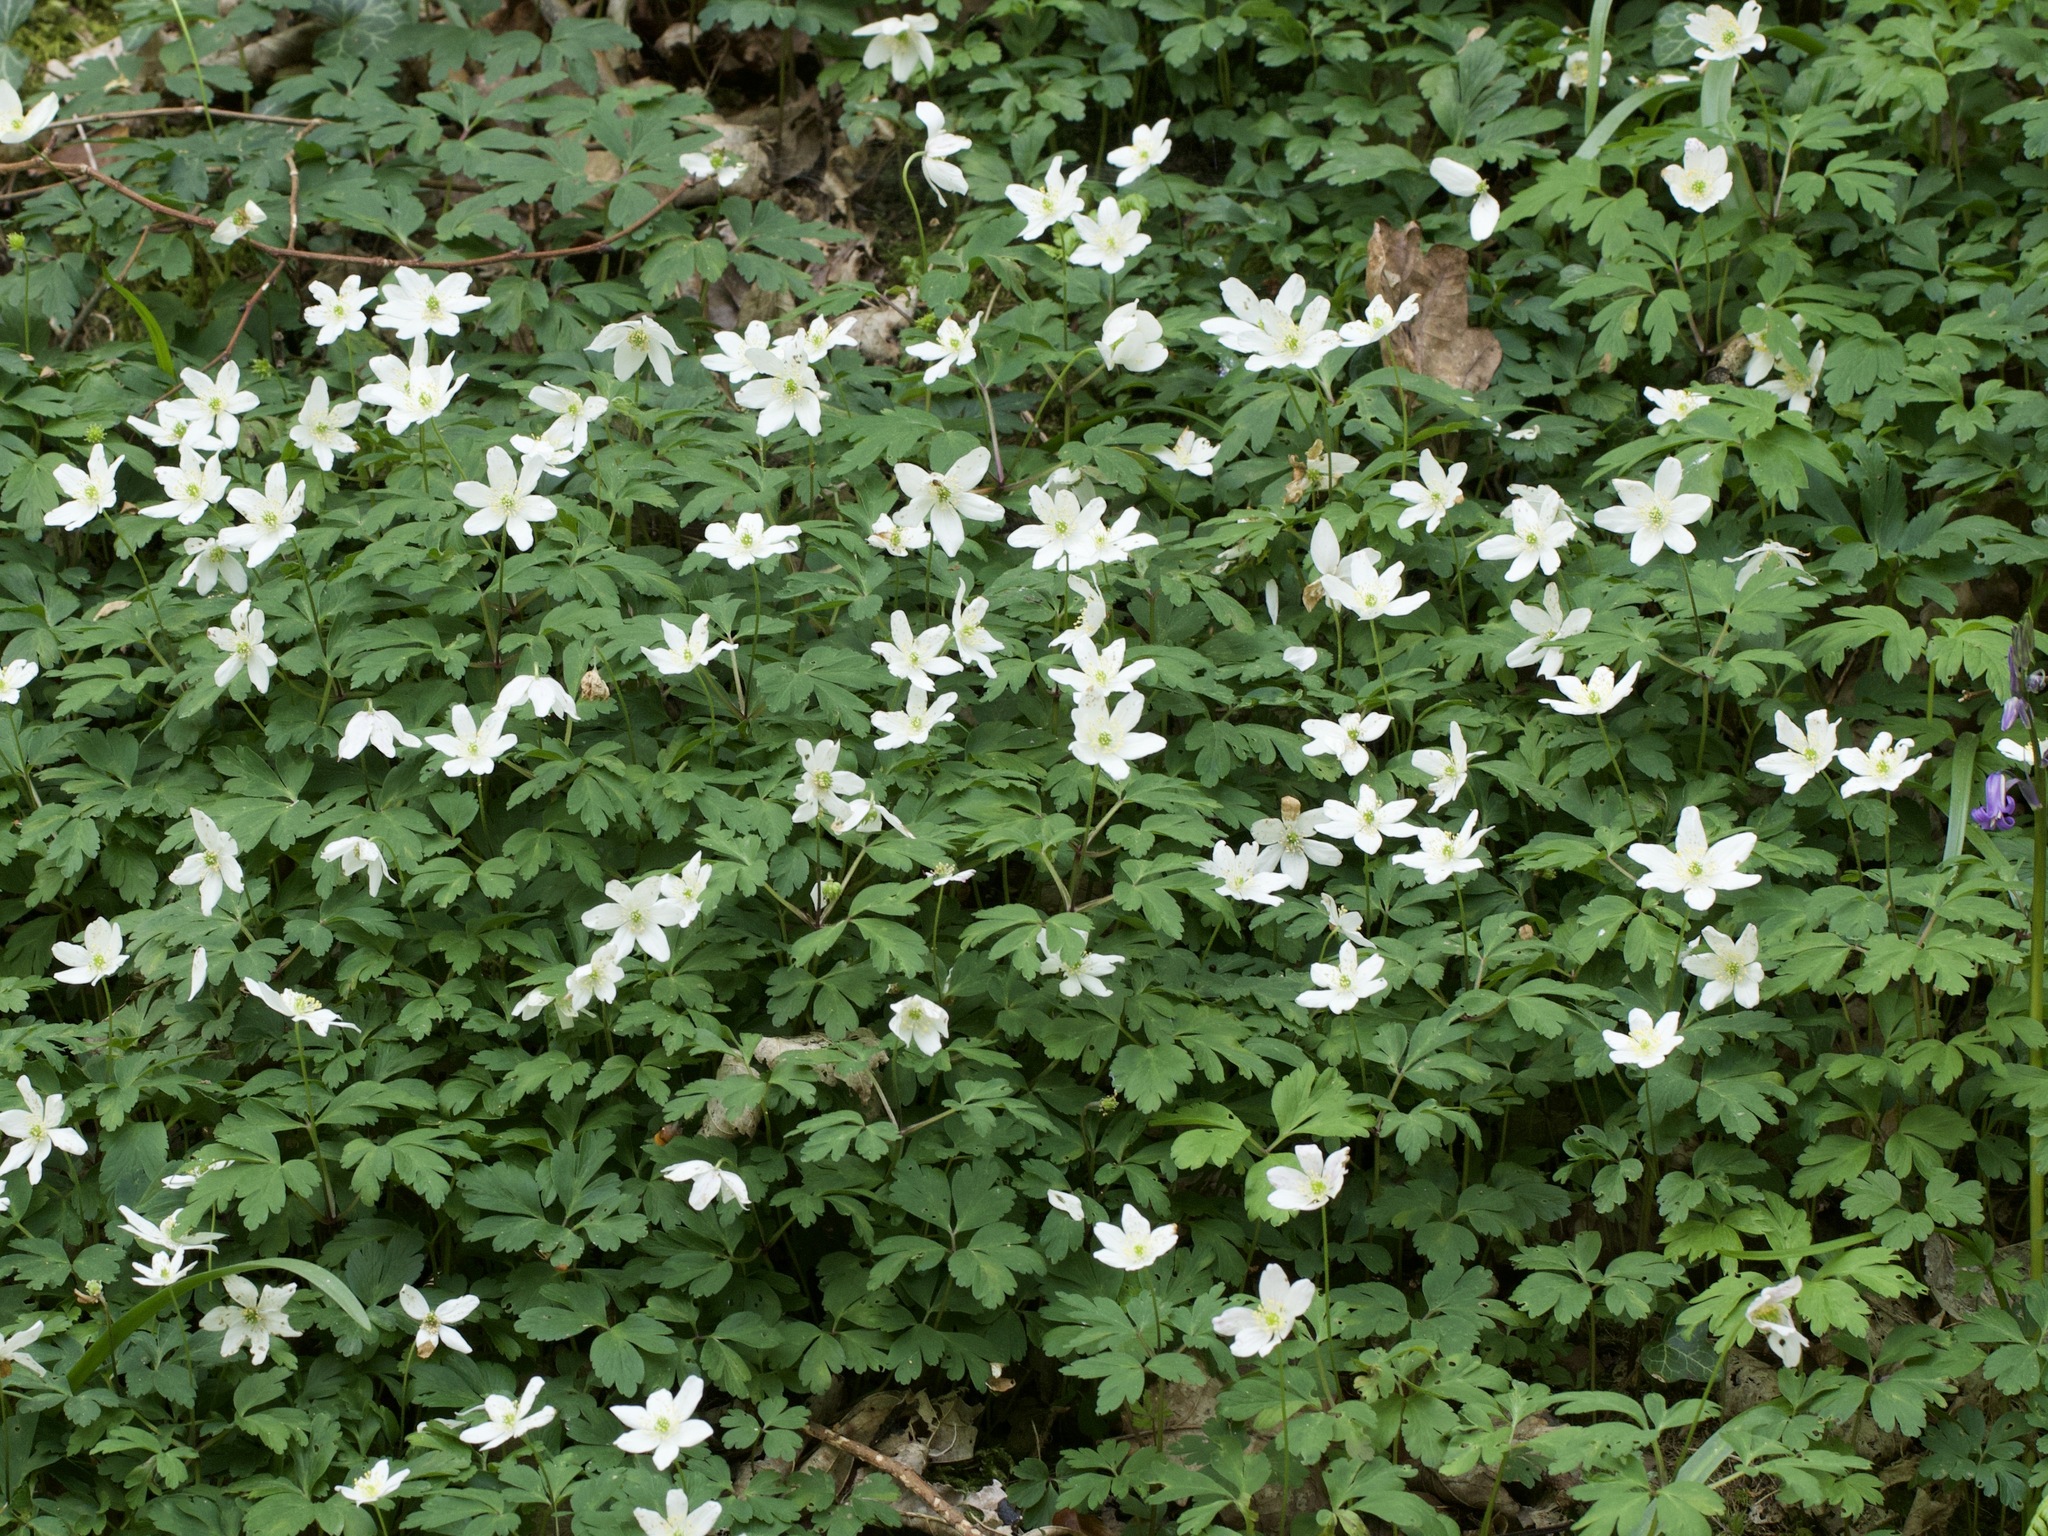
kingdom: Plantae
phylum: Tracheophyta
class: Magnoliopsida
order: Ranunculales
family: Ranunculaceae
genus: Anemone
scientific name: Anemone nemorosa
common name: Wood anemone
